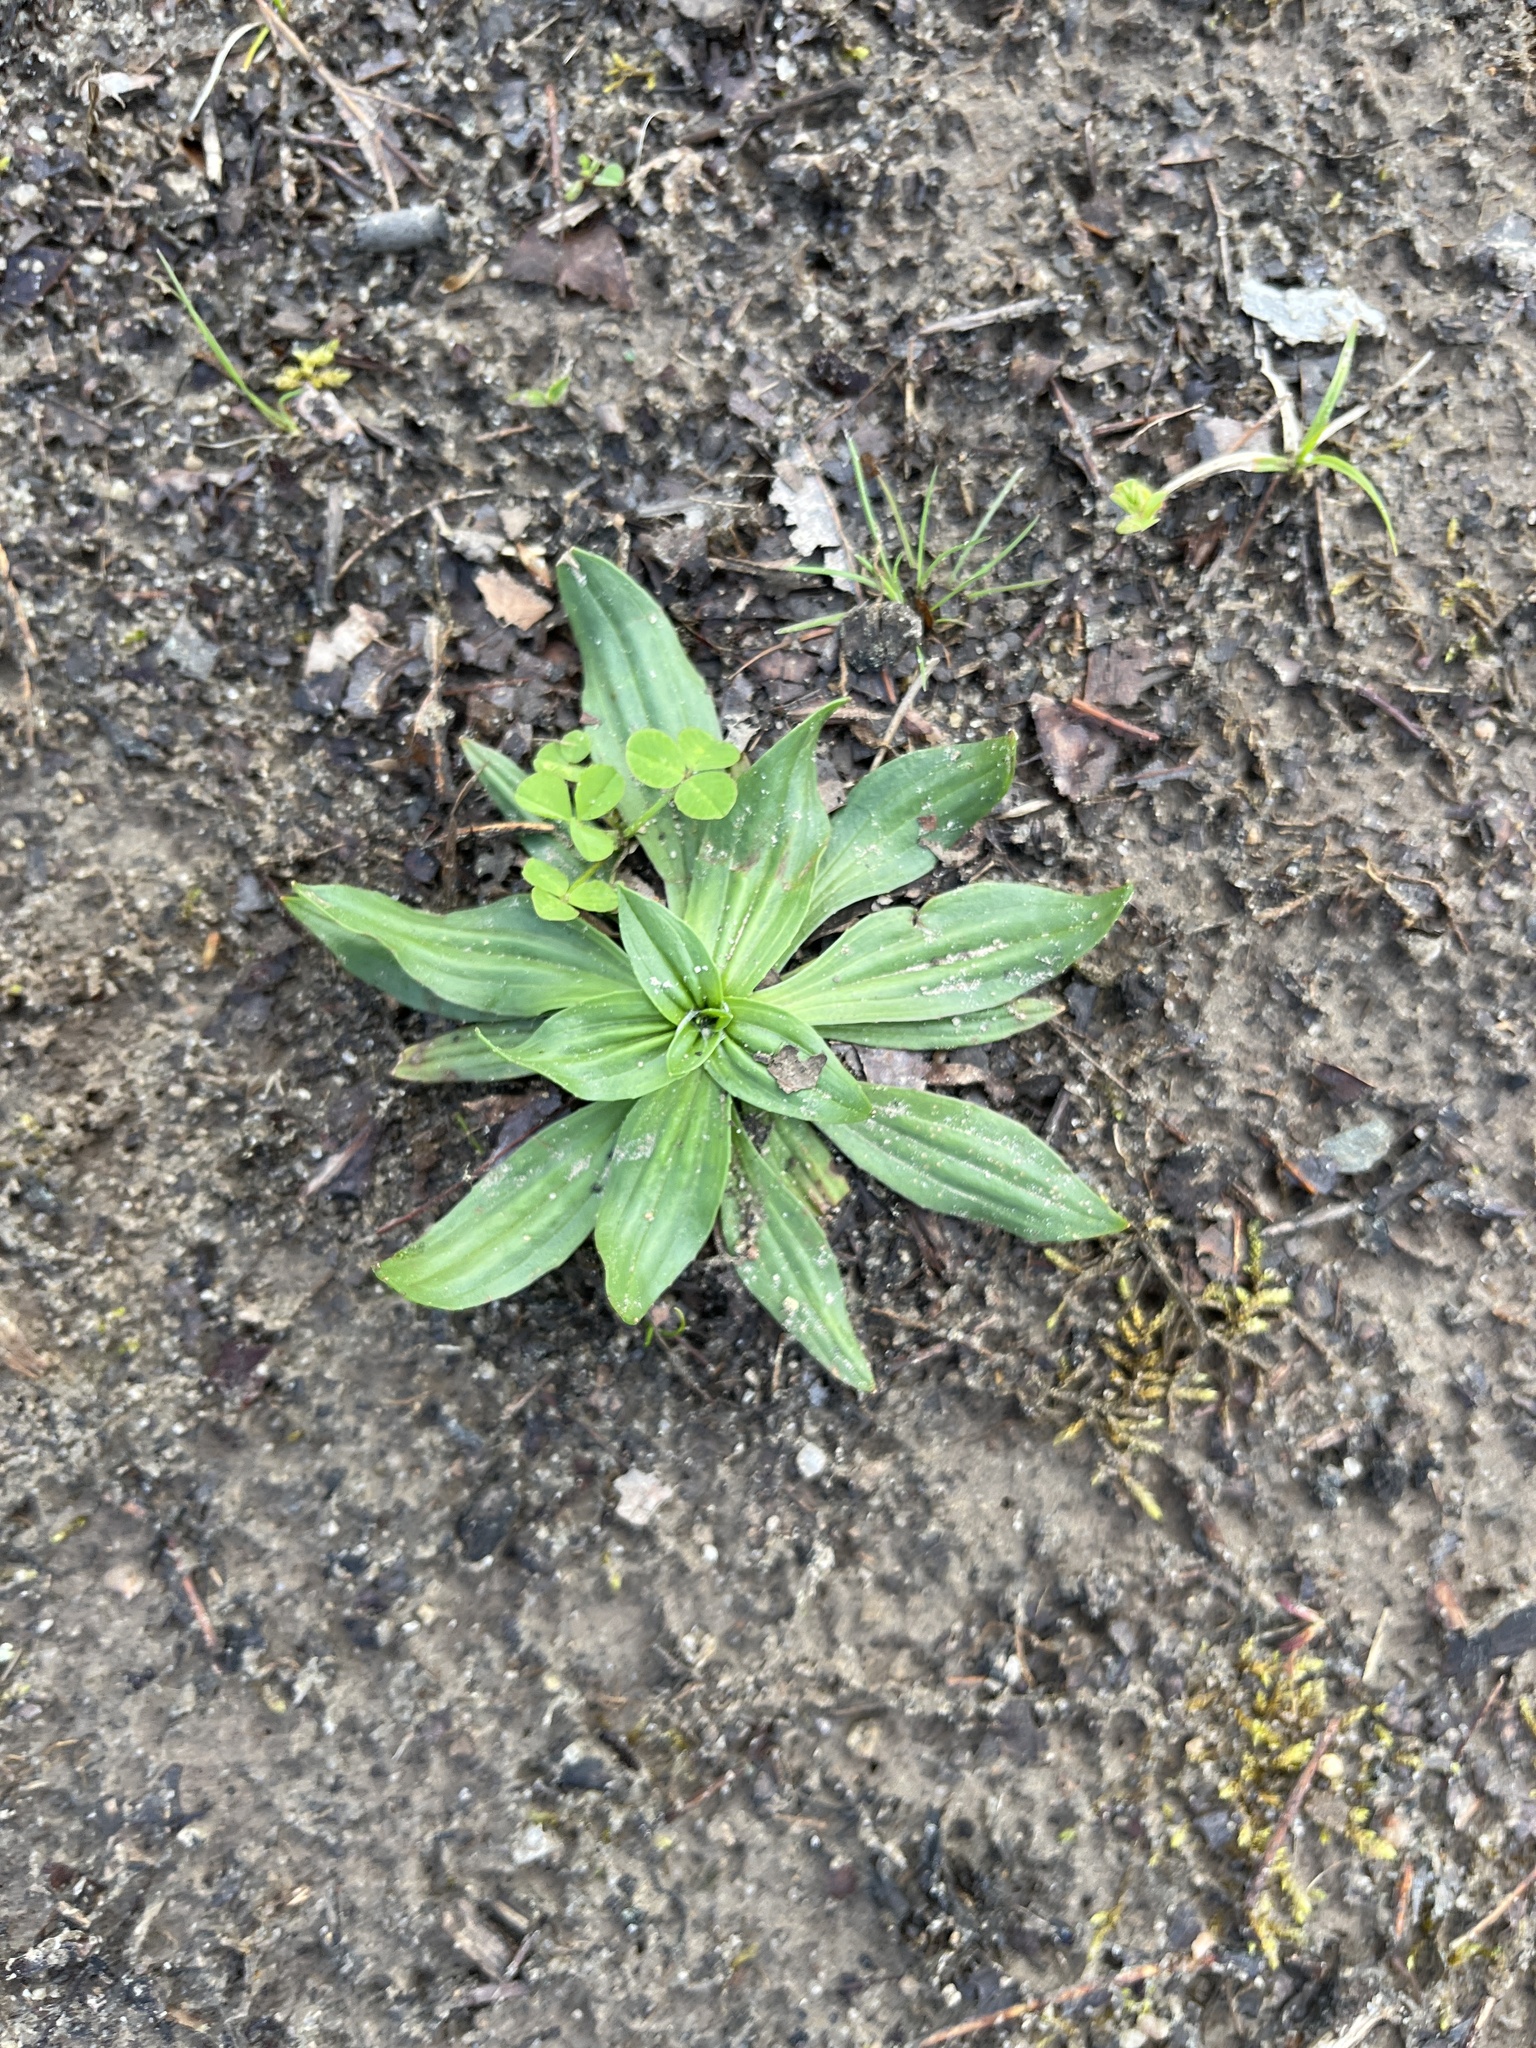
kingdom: Plantae
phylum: Tracheophyta
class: Magnoliopsida
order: Lamiales
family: Plantaginaceae
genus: Plantago
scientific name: Plantago lanceolata
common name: Ribwort plantain
